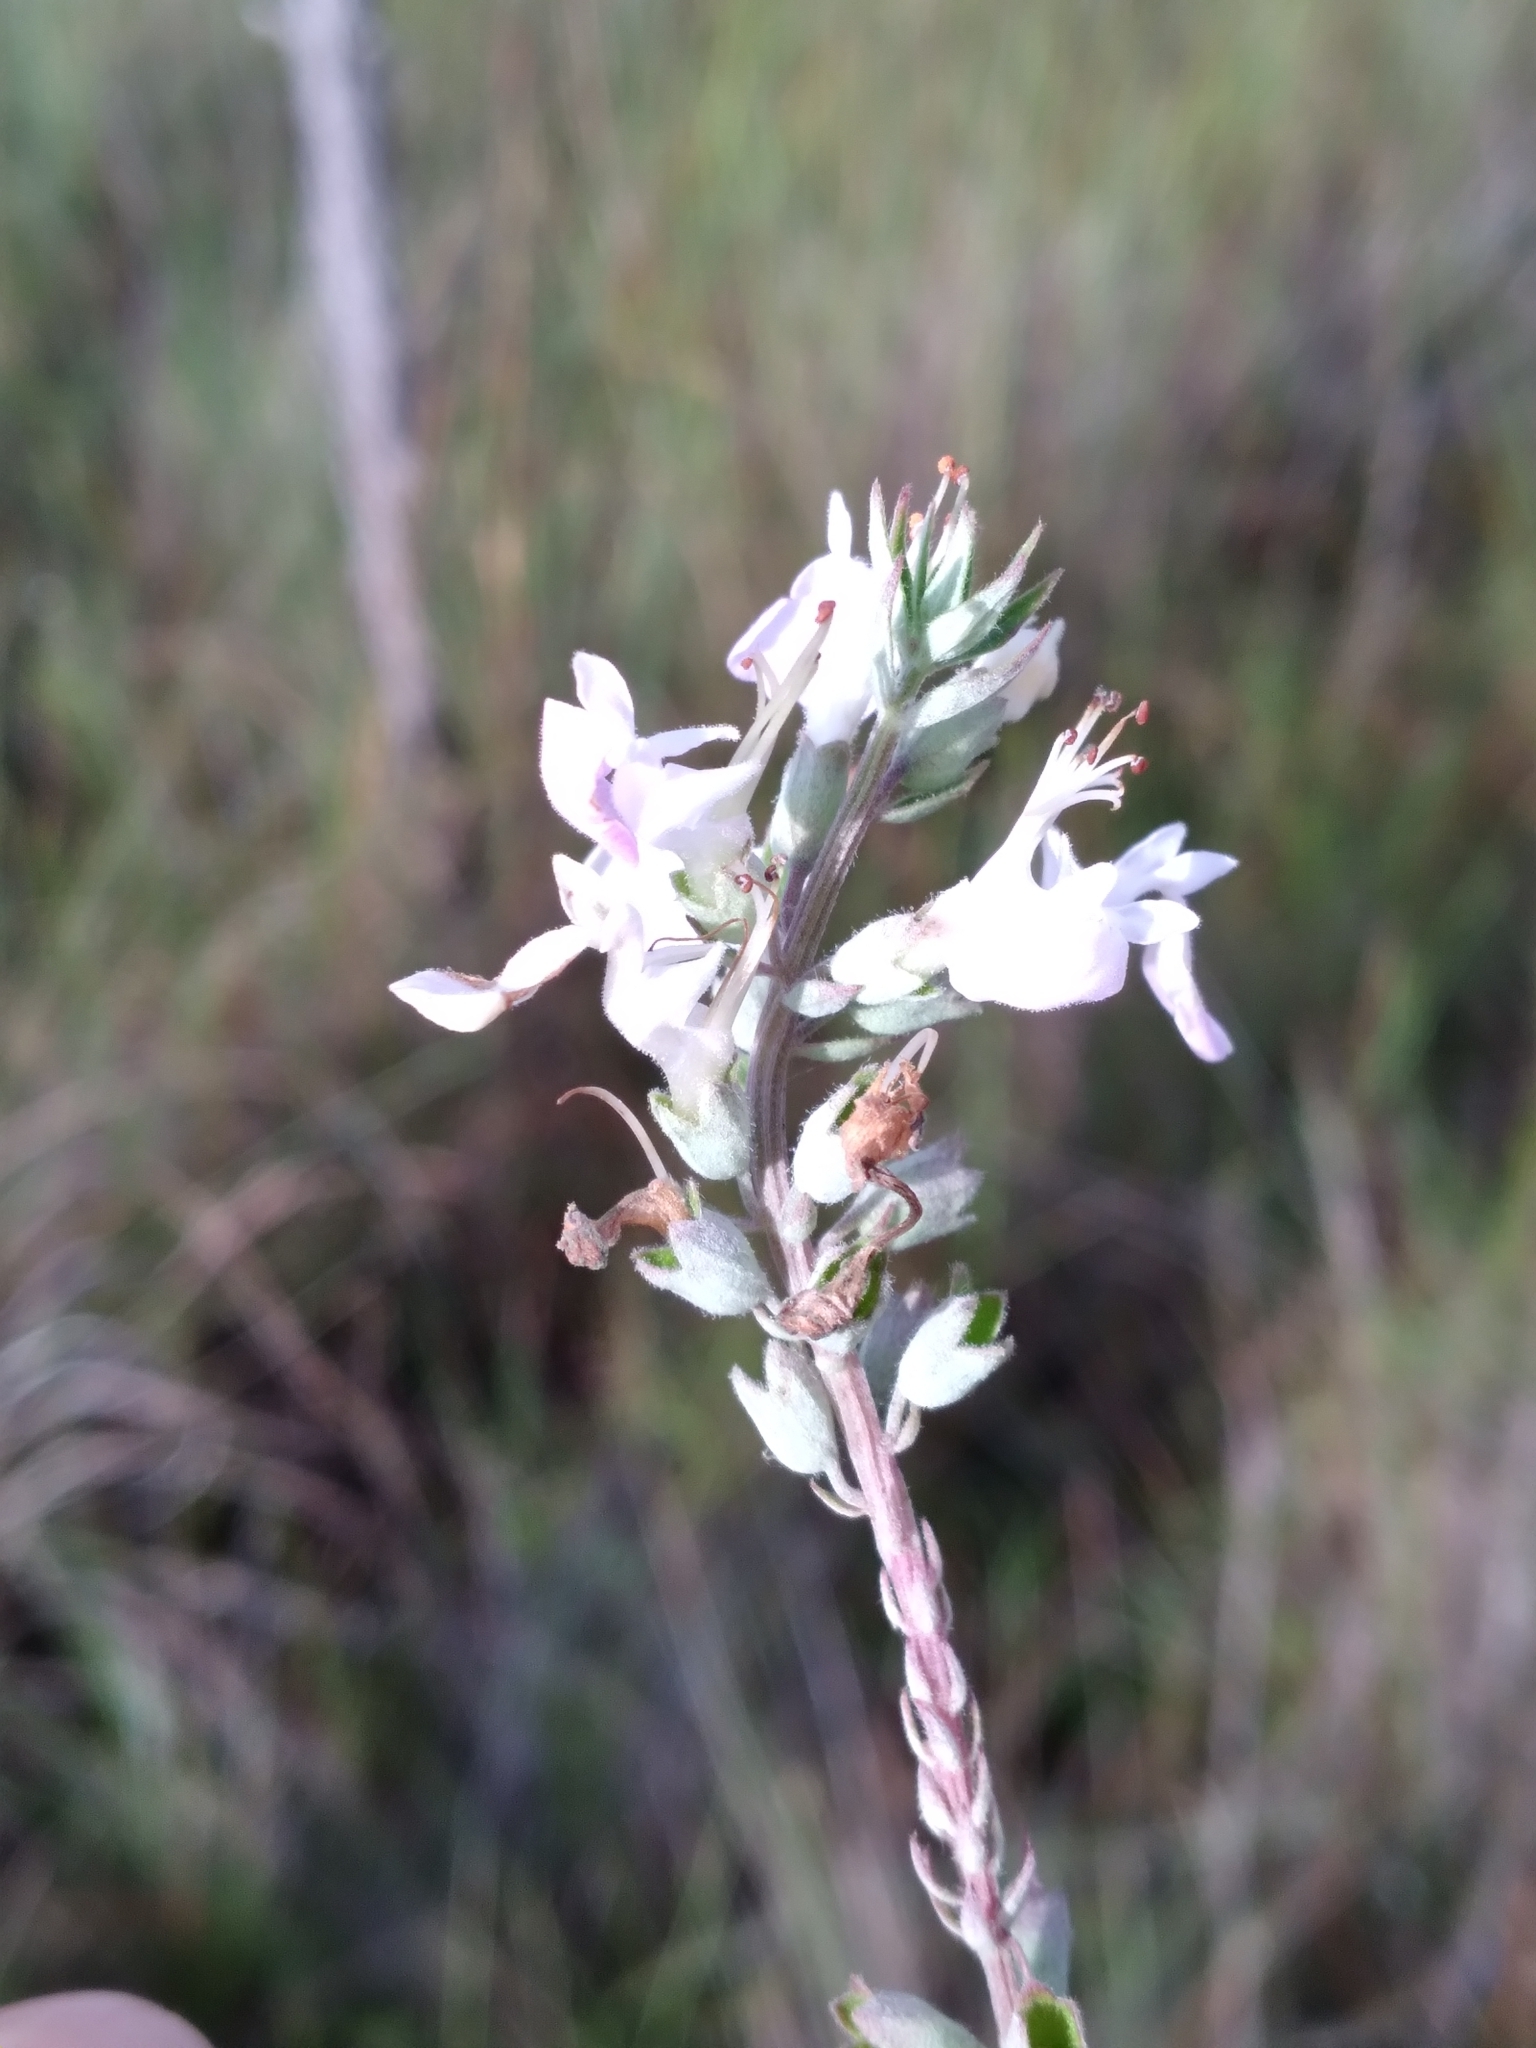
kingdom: Plantae
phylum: Tracheophyta
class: Magnoliopsida
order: Lamiales
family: Lamiaceae
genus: Teucrium
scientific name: Teucrium canadense
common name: American germander
